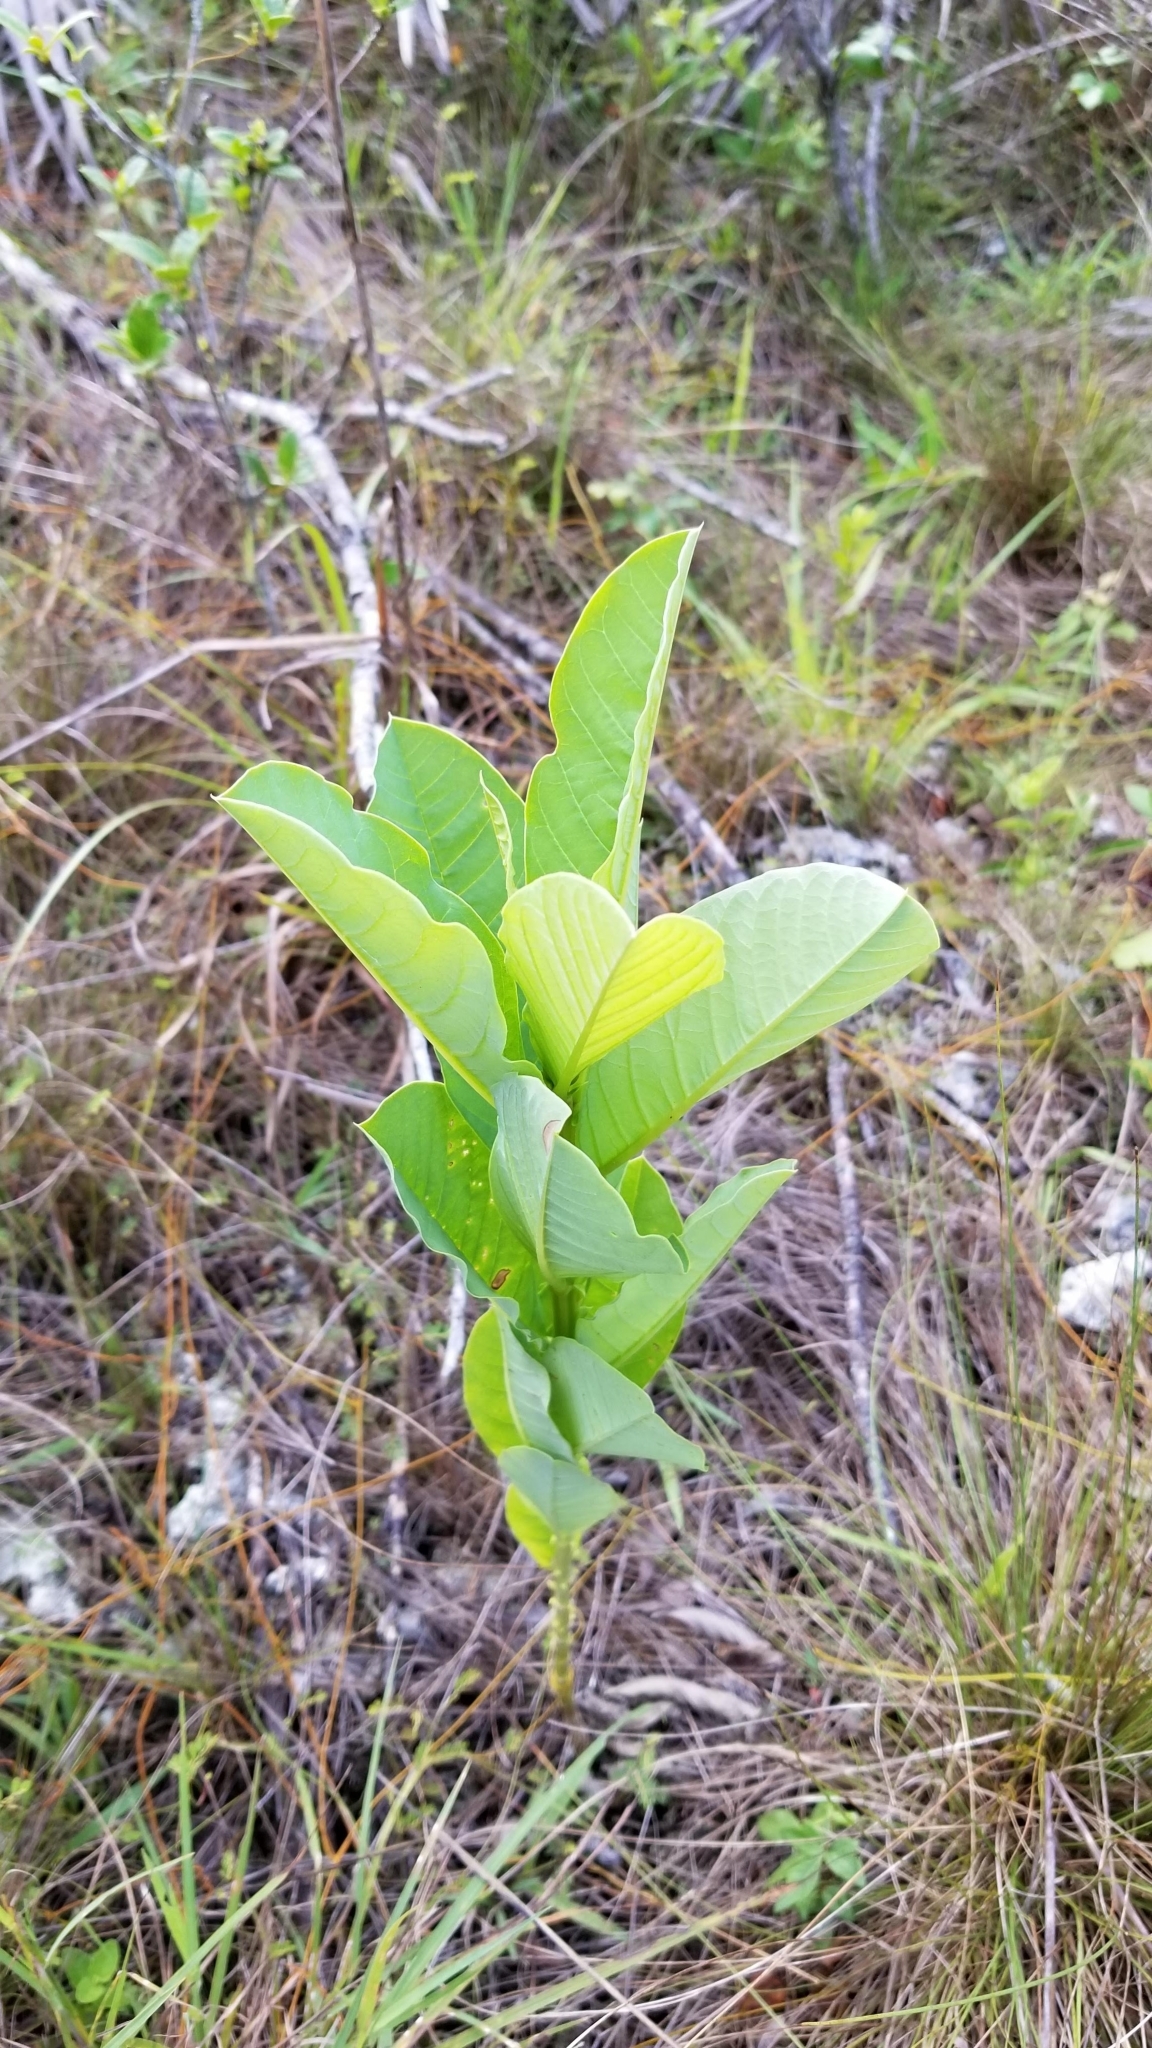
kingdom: Plantae
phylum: Tracheophyta
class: Magnoliopsida
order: Fabales
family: Fabaceae
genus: Crotalaria
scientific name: Crotalaria spectabilis
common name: Showy rattlebox
